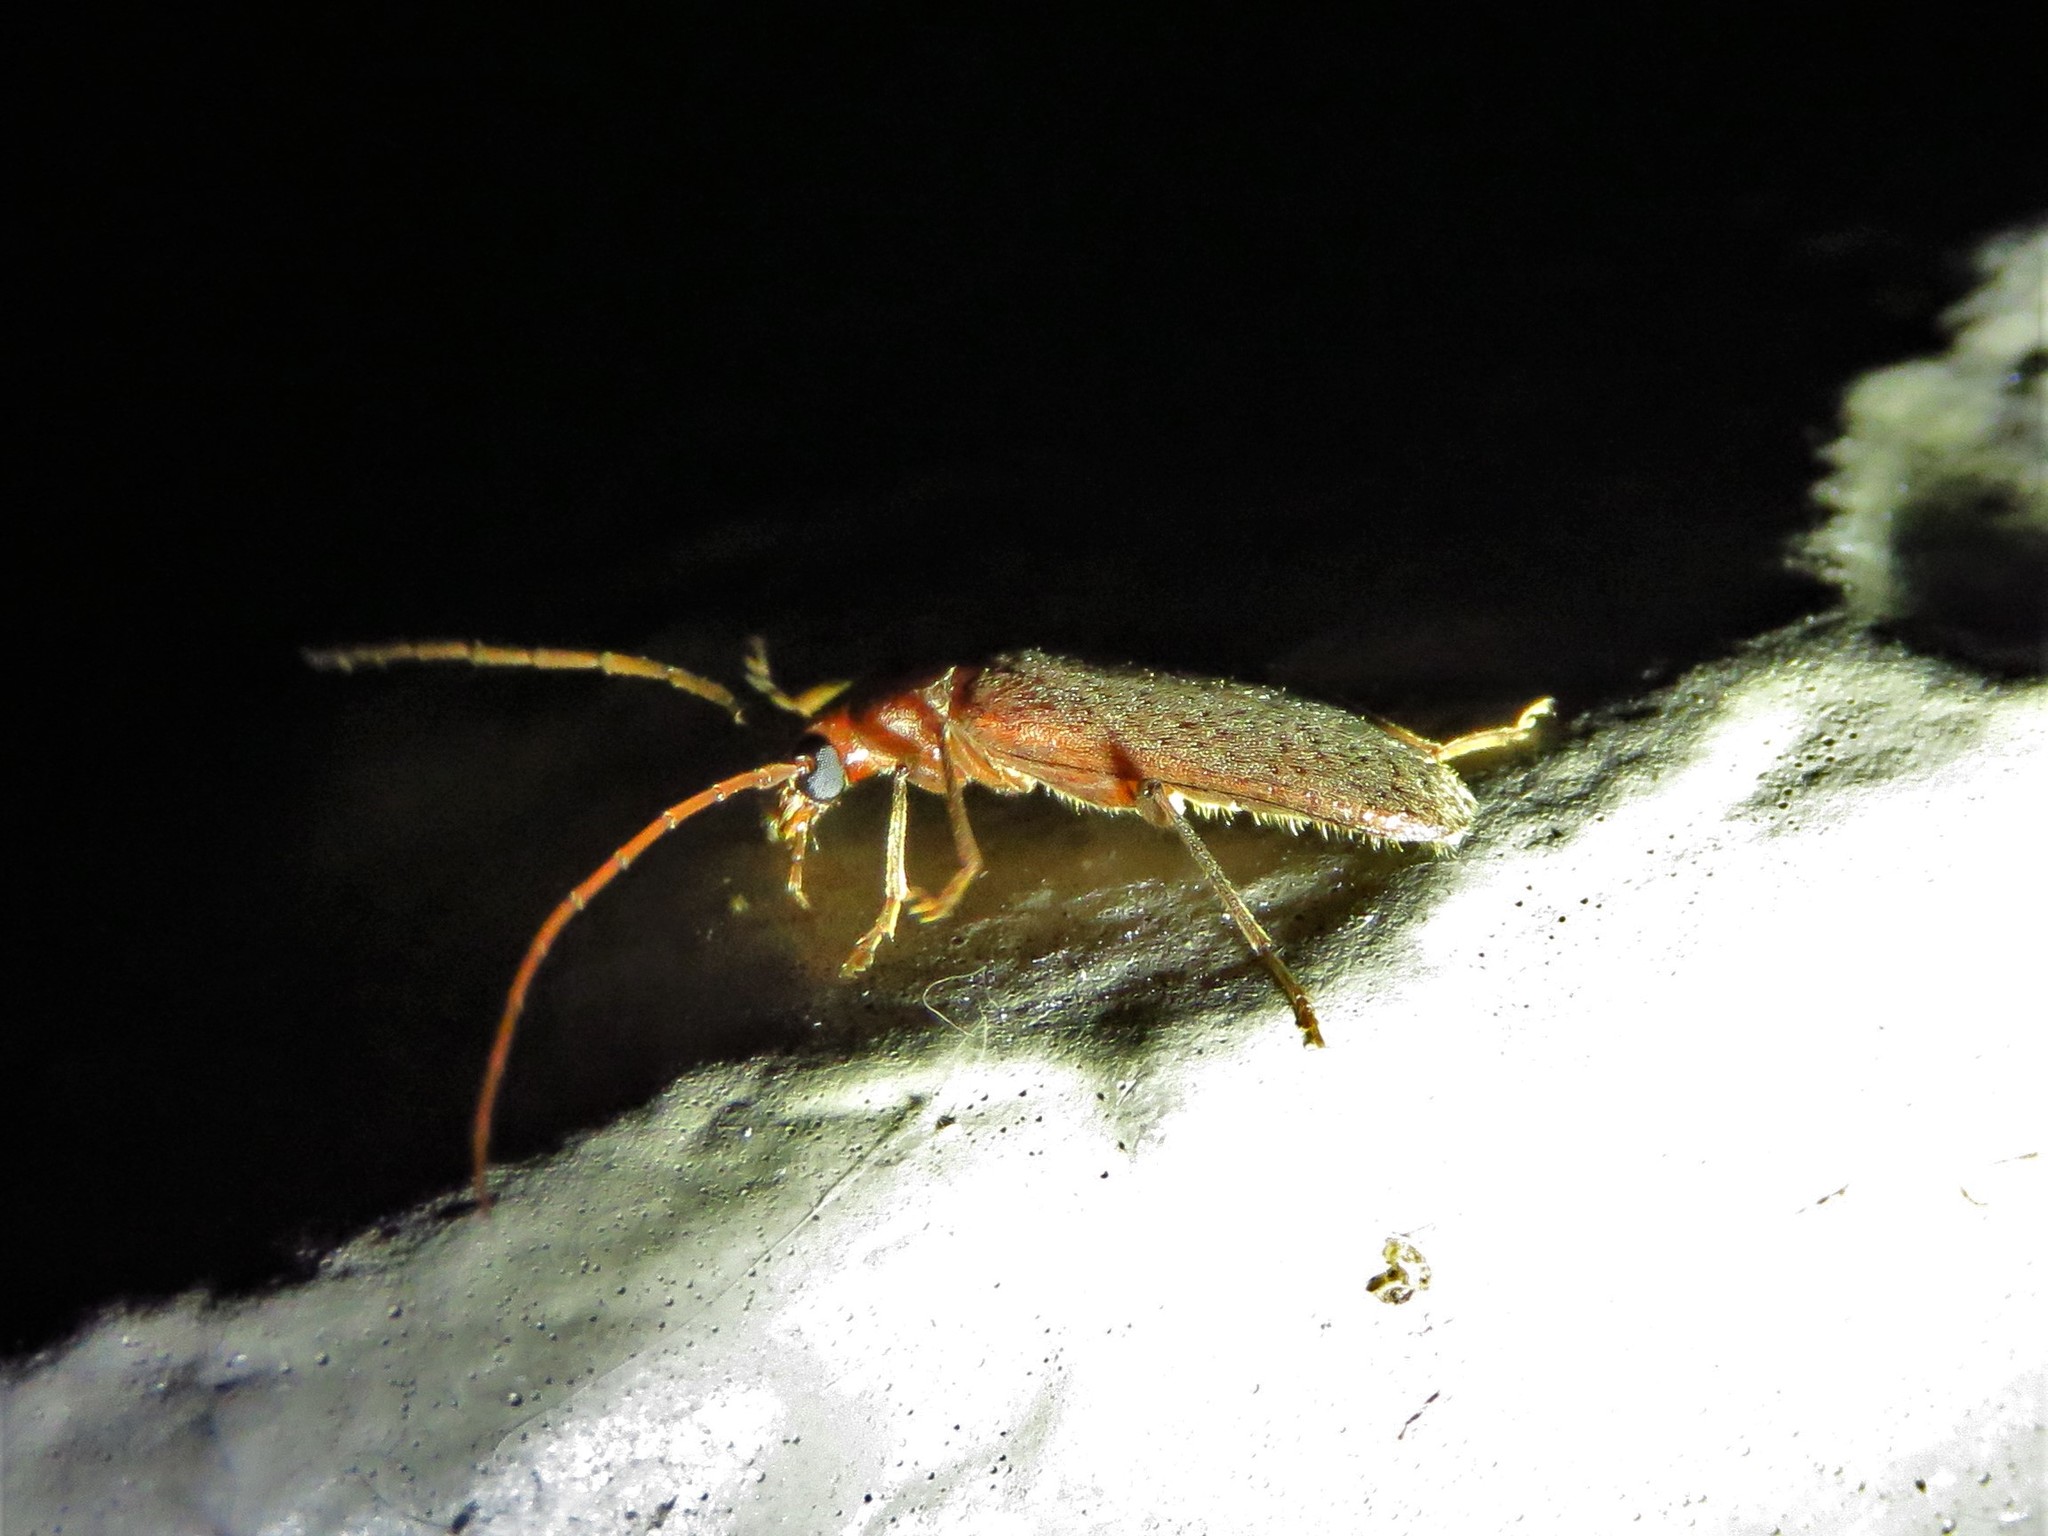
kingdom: Animalia
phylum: Arthropoda
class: Insecta
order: Coleoptera
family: Oedemeridae
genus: Sparedrus
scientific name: Sparedrus aspersus
